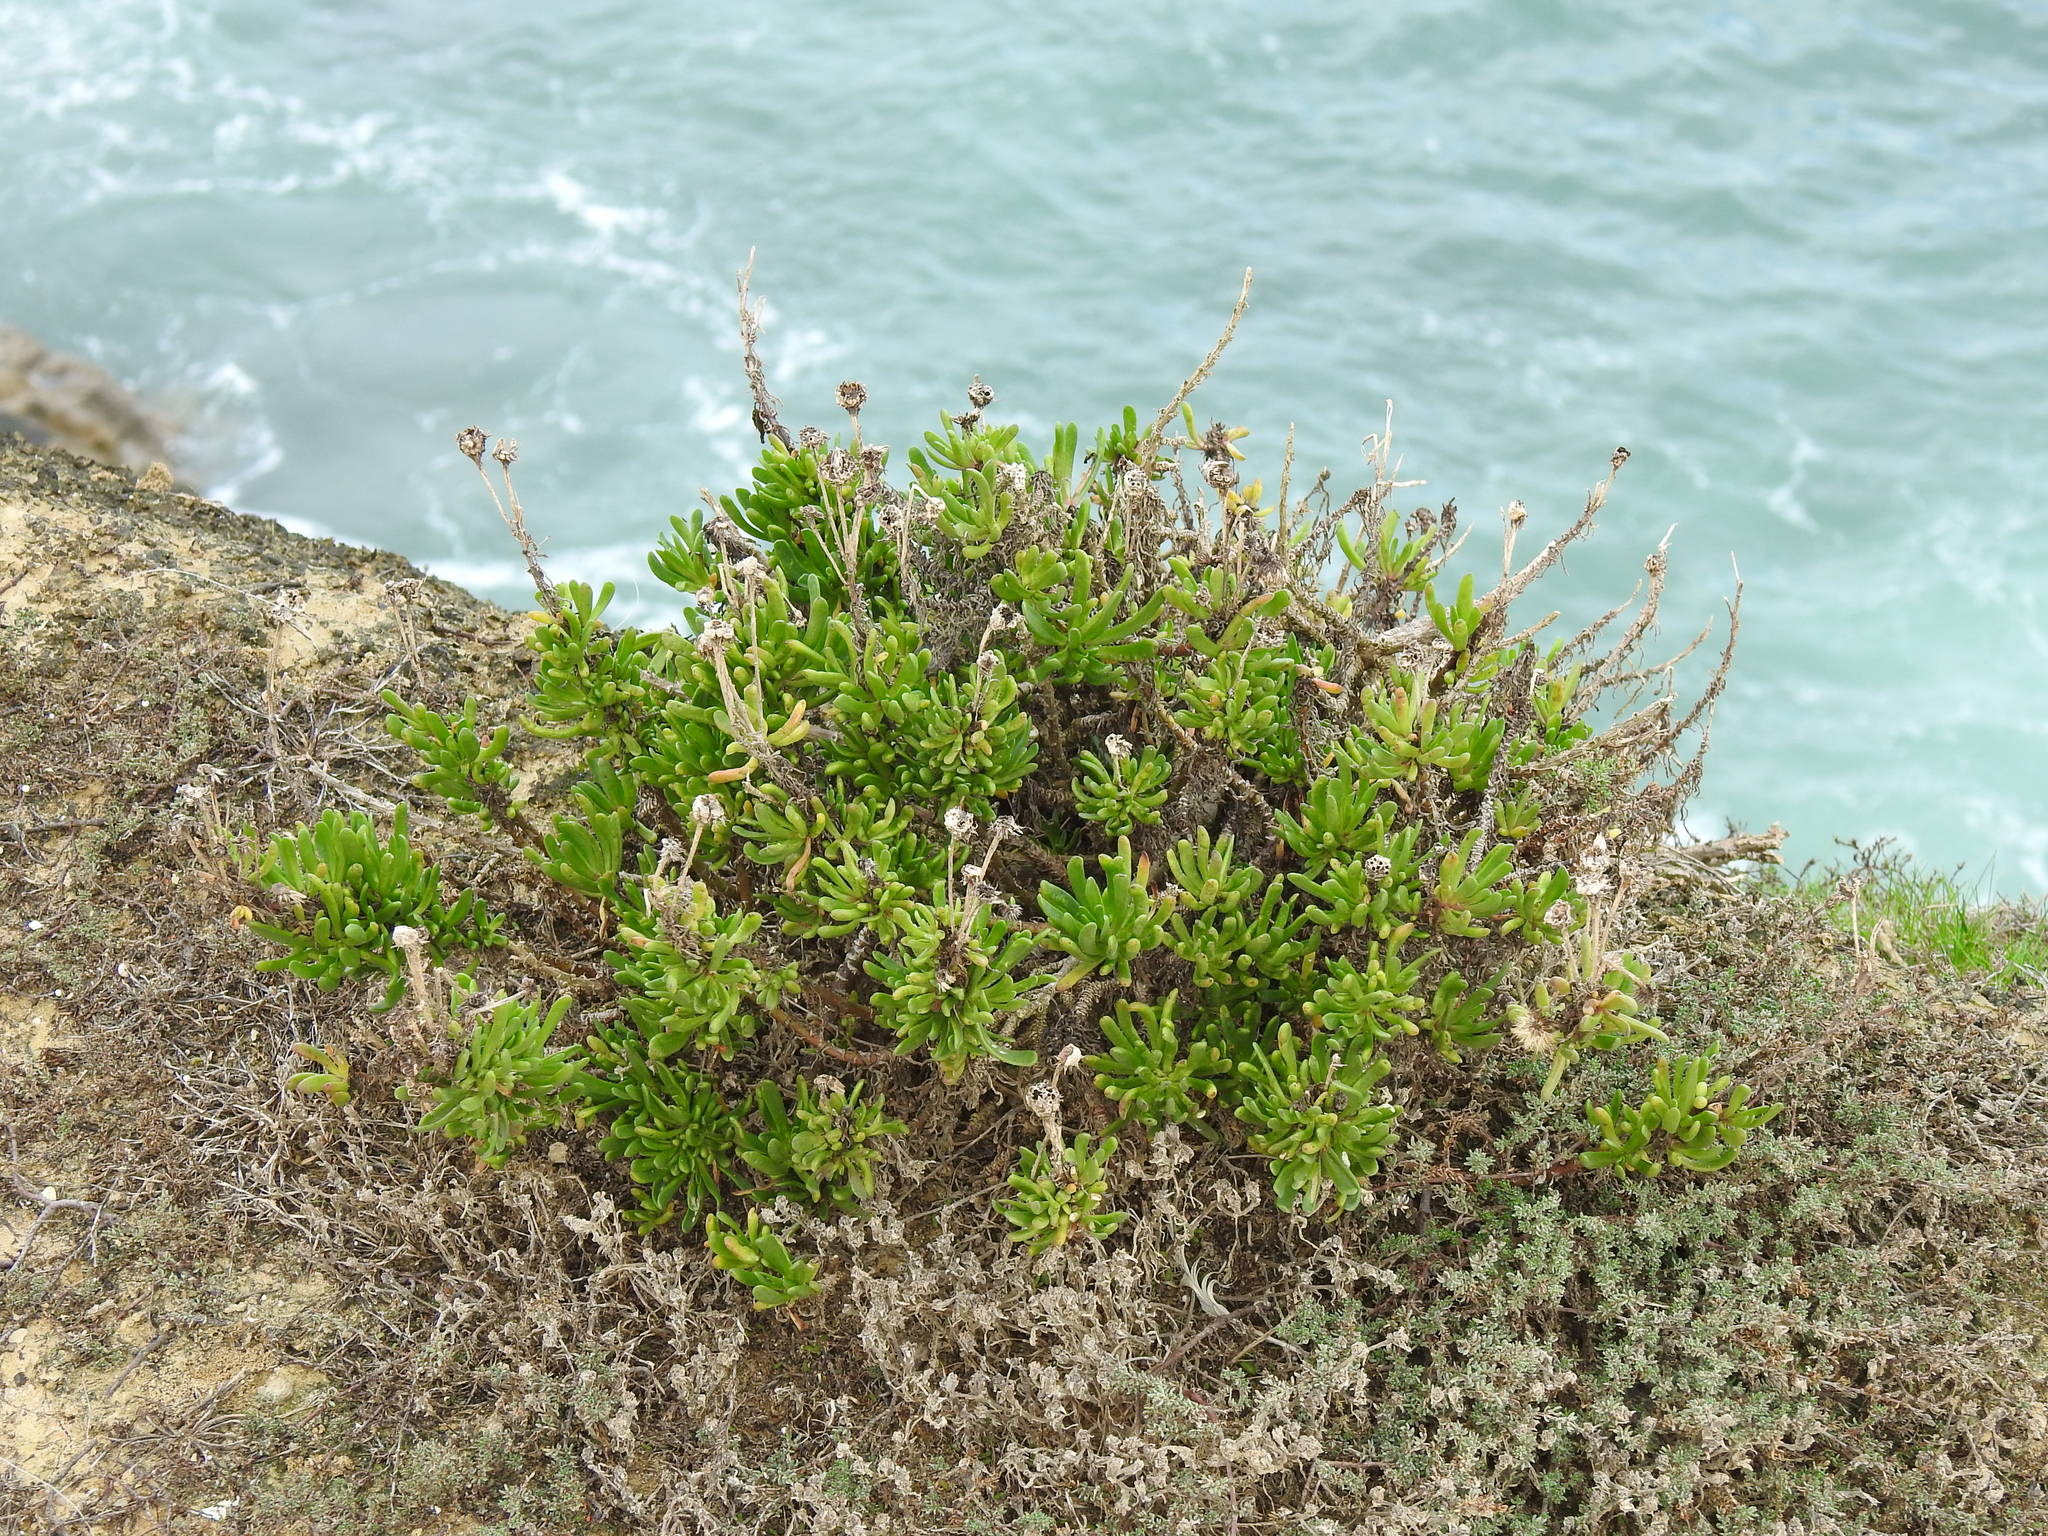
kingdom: Plantae
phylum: Tracheophyta
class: Magnoliopsida
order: Asterales
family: Asteraceae
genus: Limbarda
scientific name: Limbarda crithmoides
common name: Golden samphire
